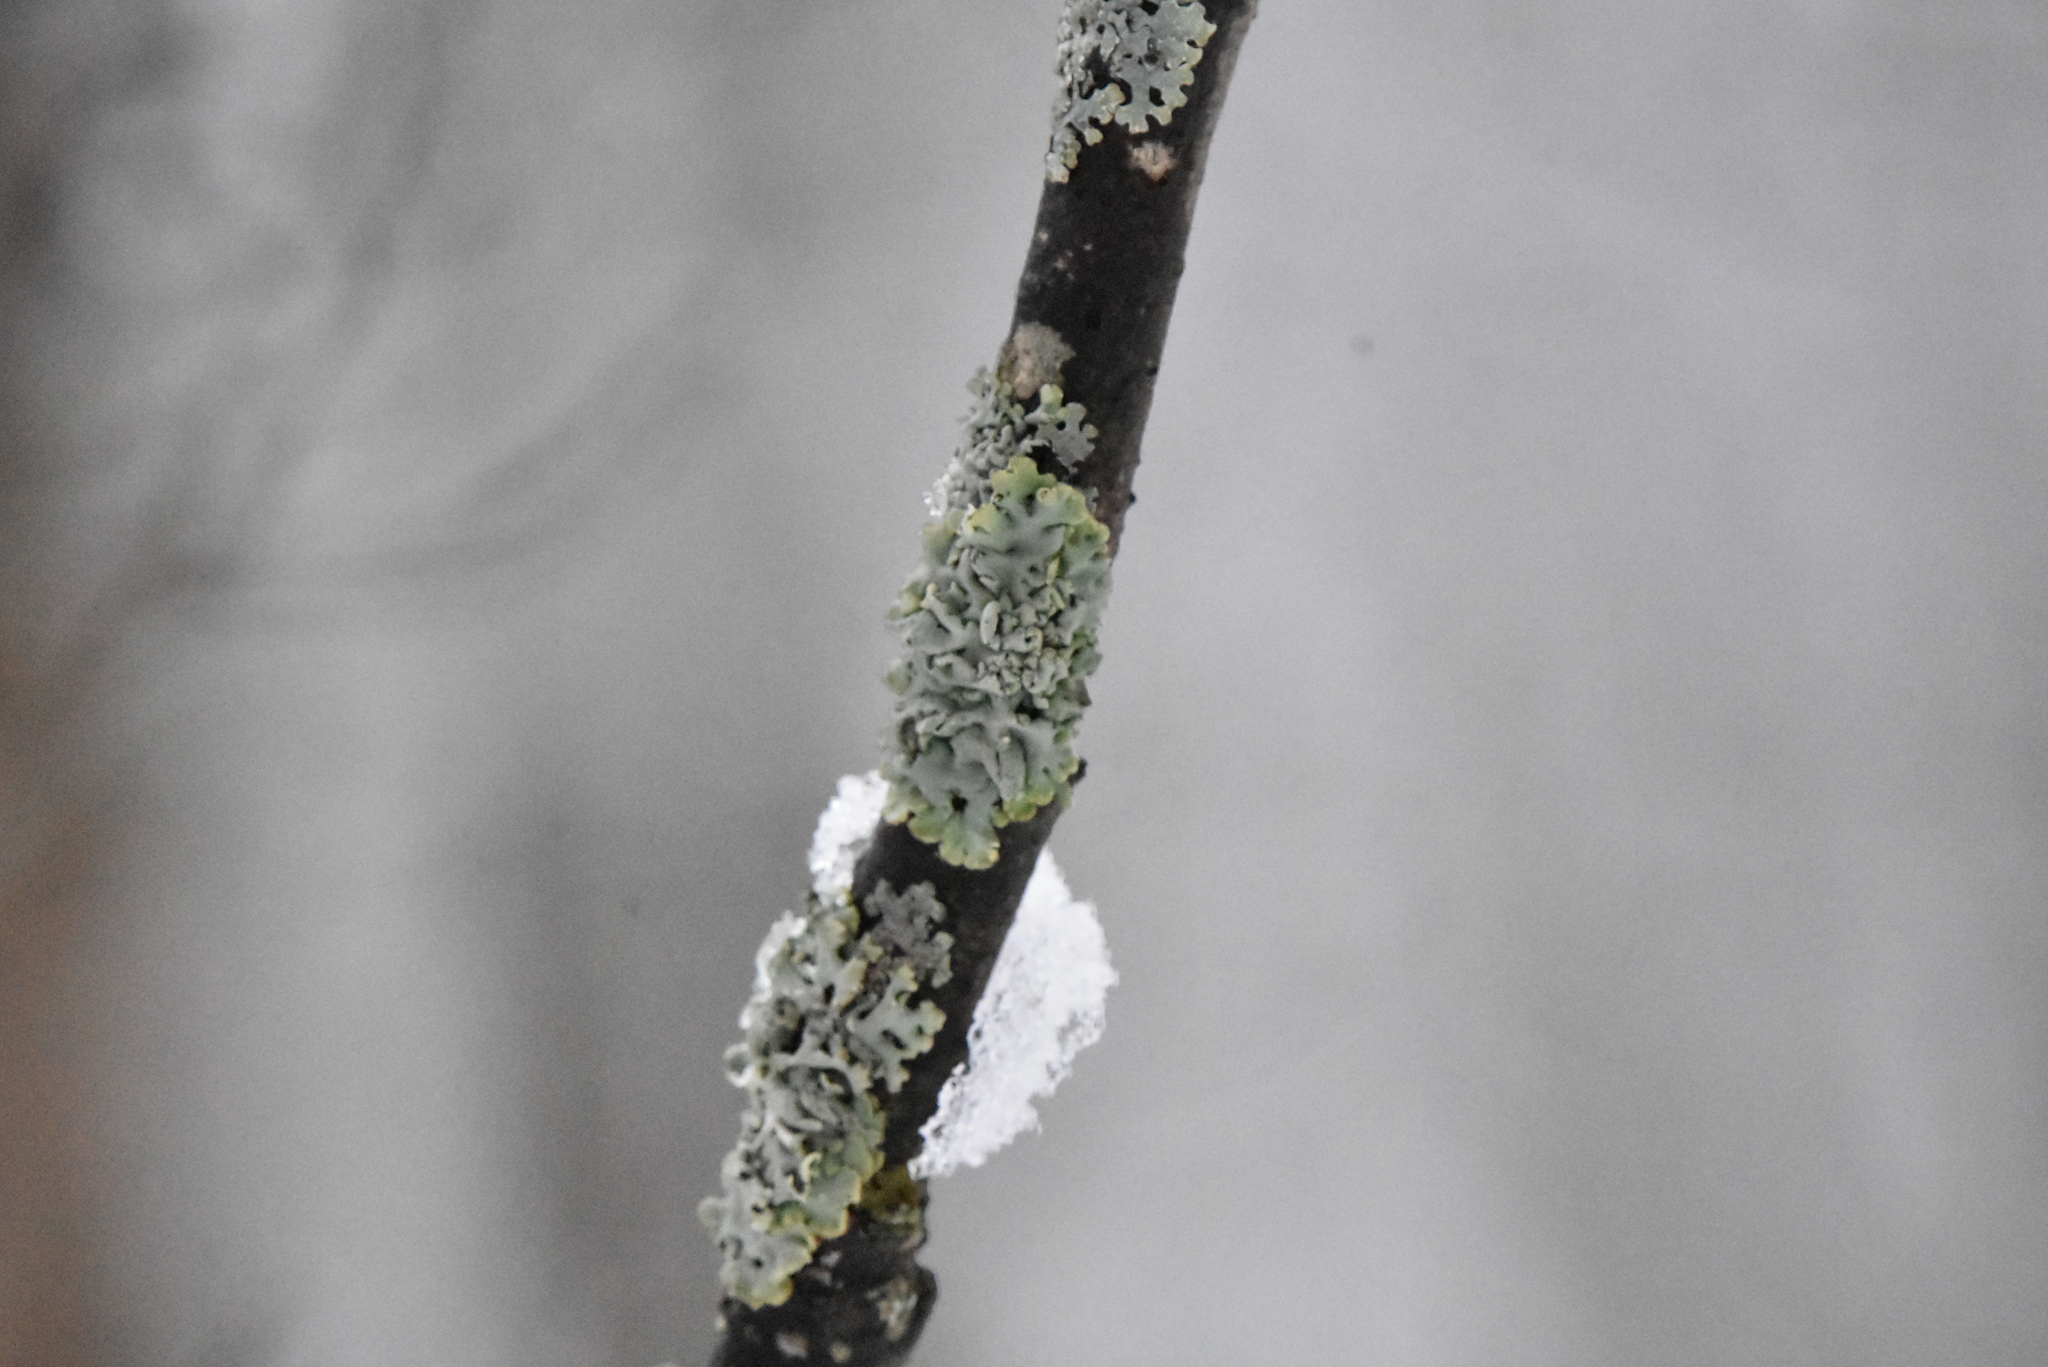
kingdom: Fungi
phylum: Ascomycota
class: Lecanoromycetes
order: Lecanorales
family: Parmeliaceae
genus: Hypogymnia
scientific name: Hypogymnia physodes
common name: Dark crottle
